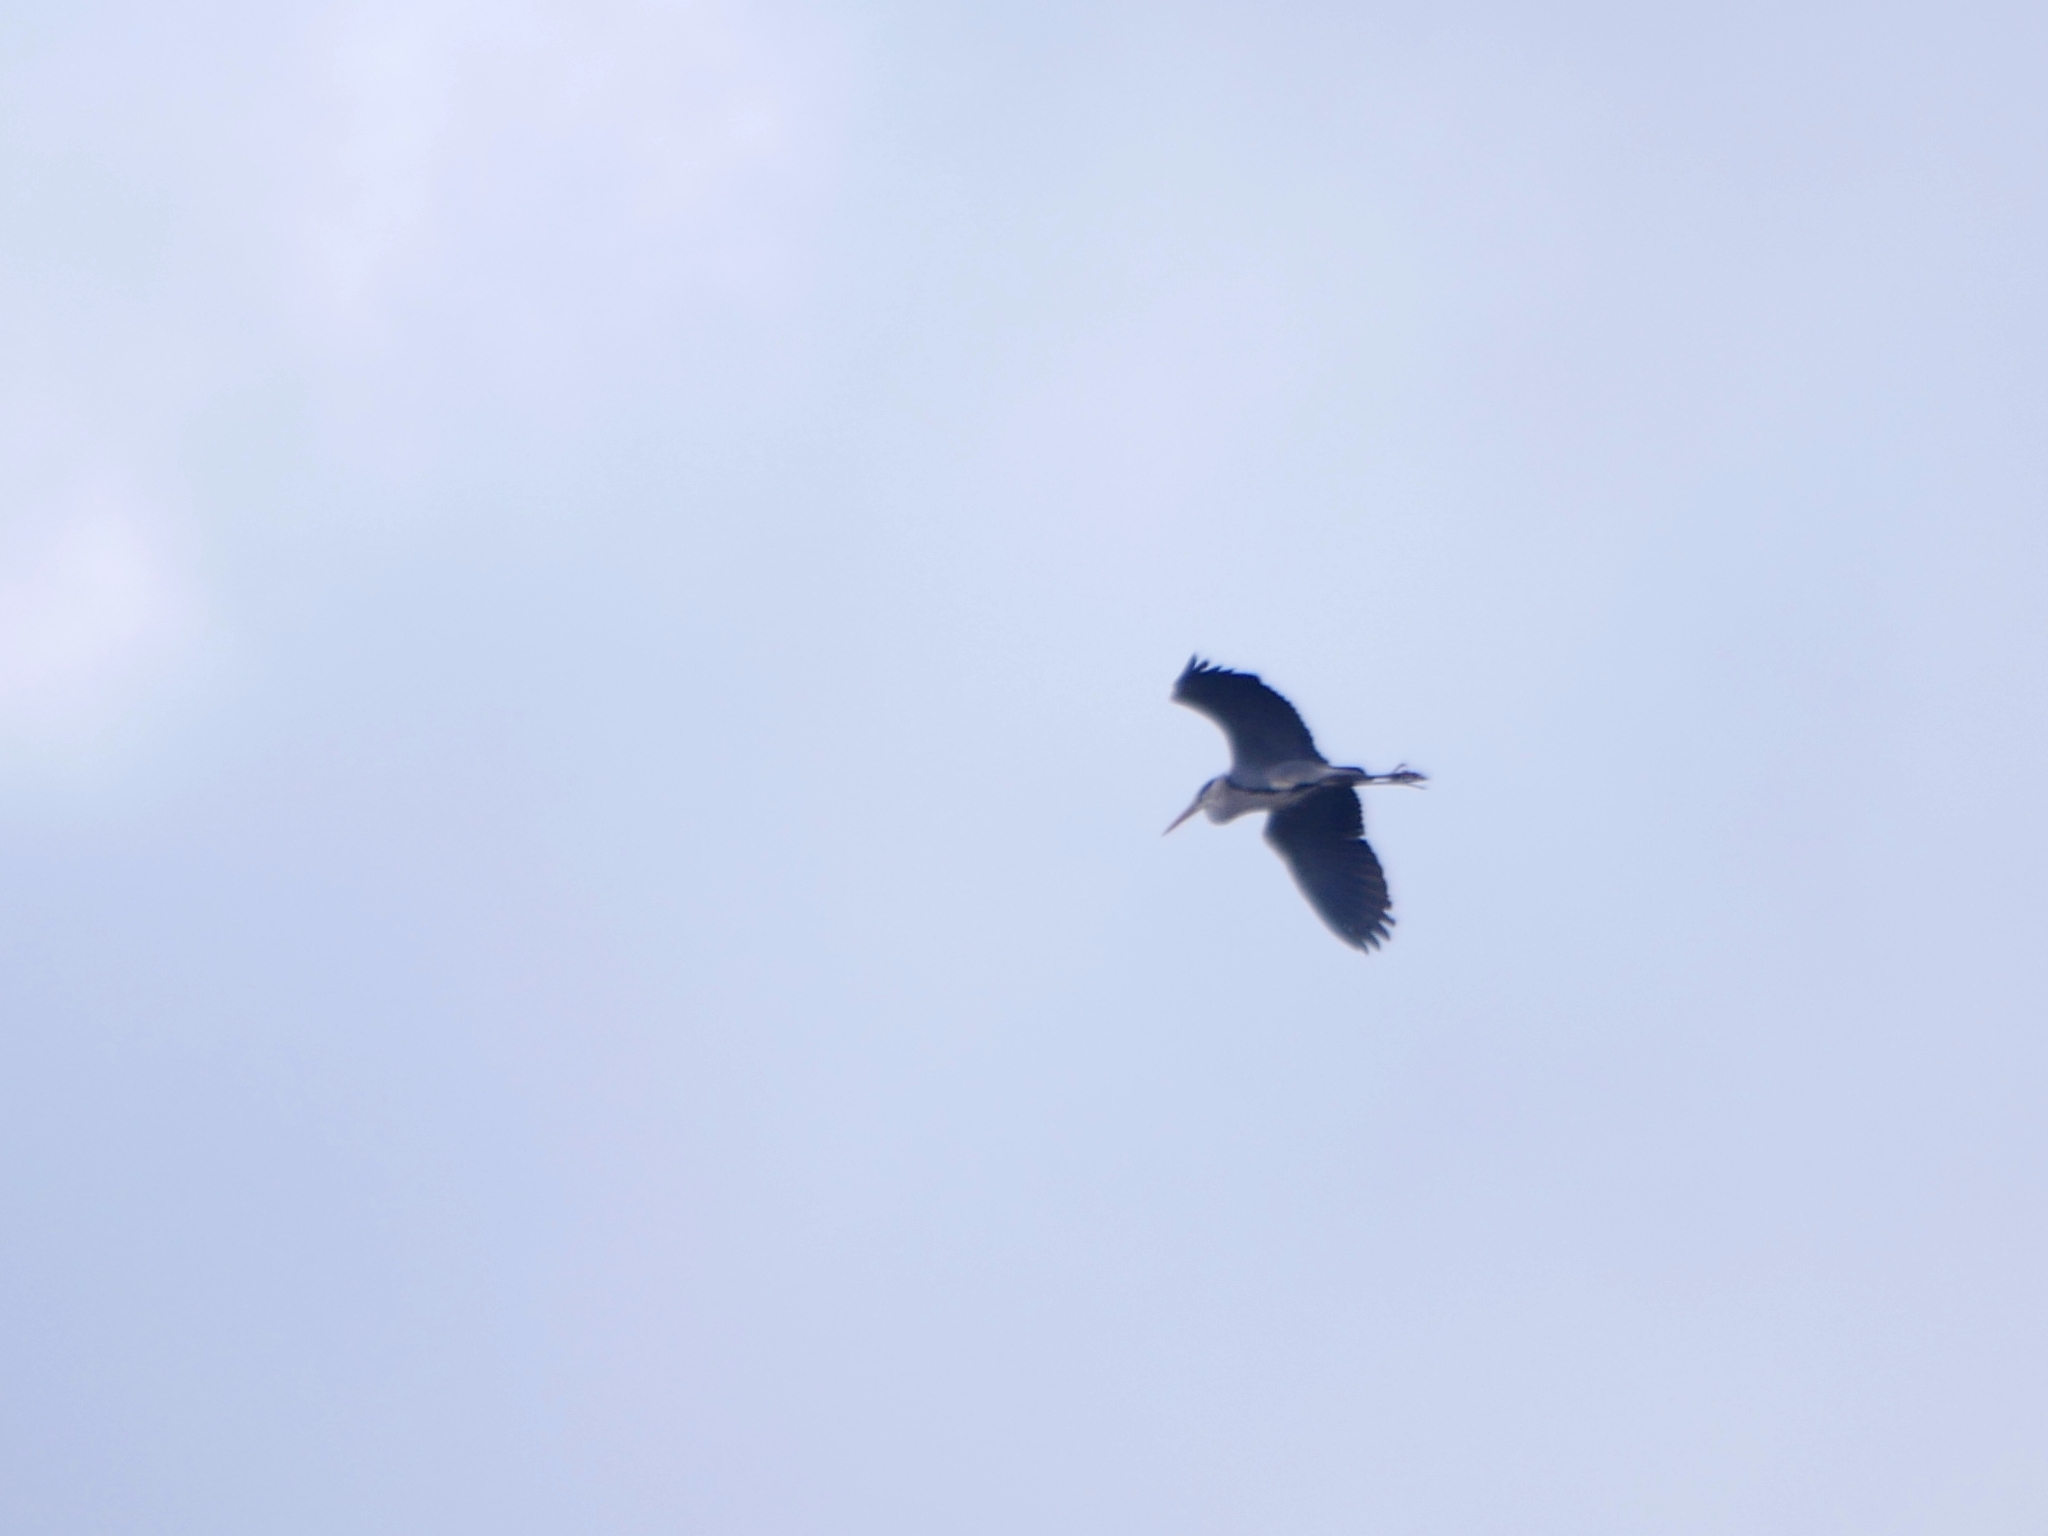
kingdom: Animalia
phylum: Chordata
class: Aves
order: Pelecaniformes
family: Ardeidae
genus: Ardea
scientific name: Ardea cinerea
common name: Grey heron
